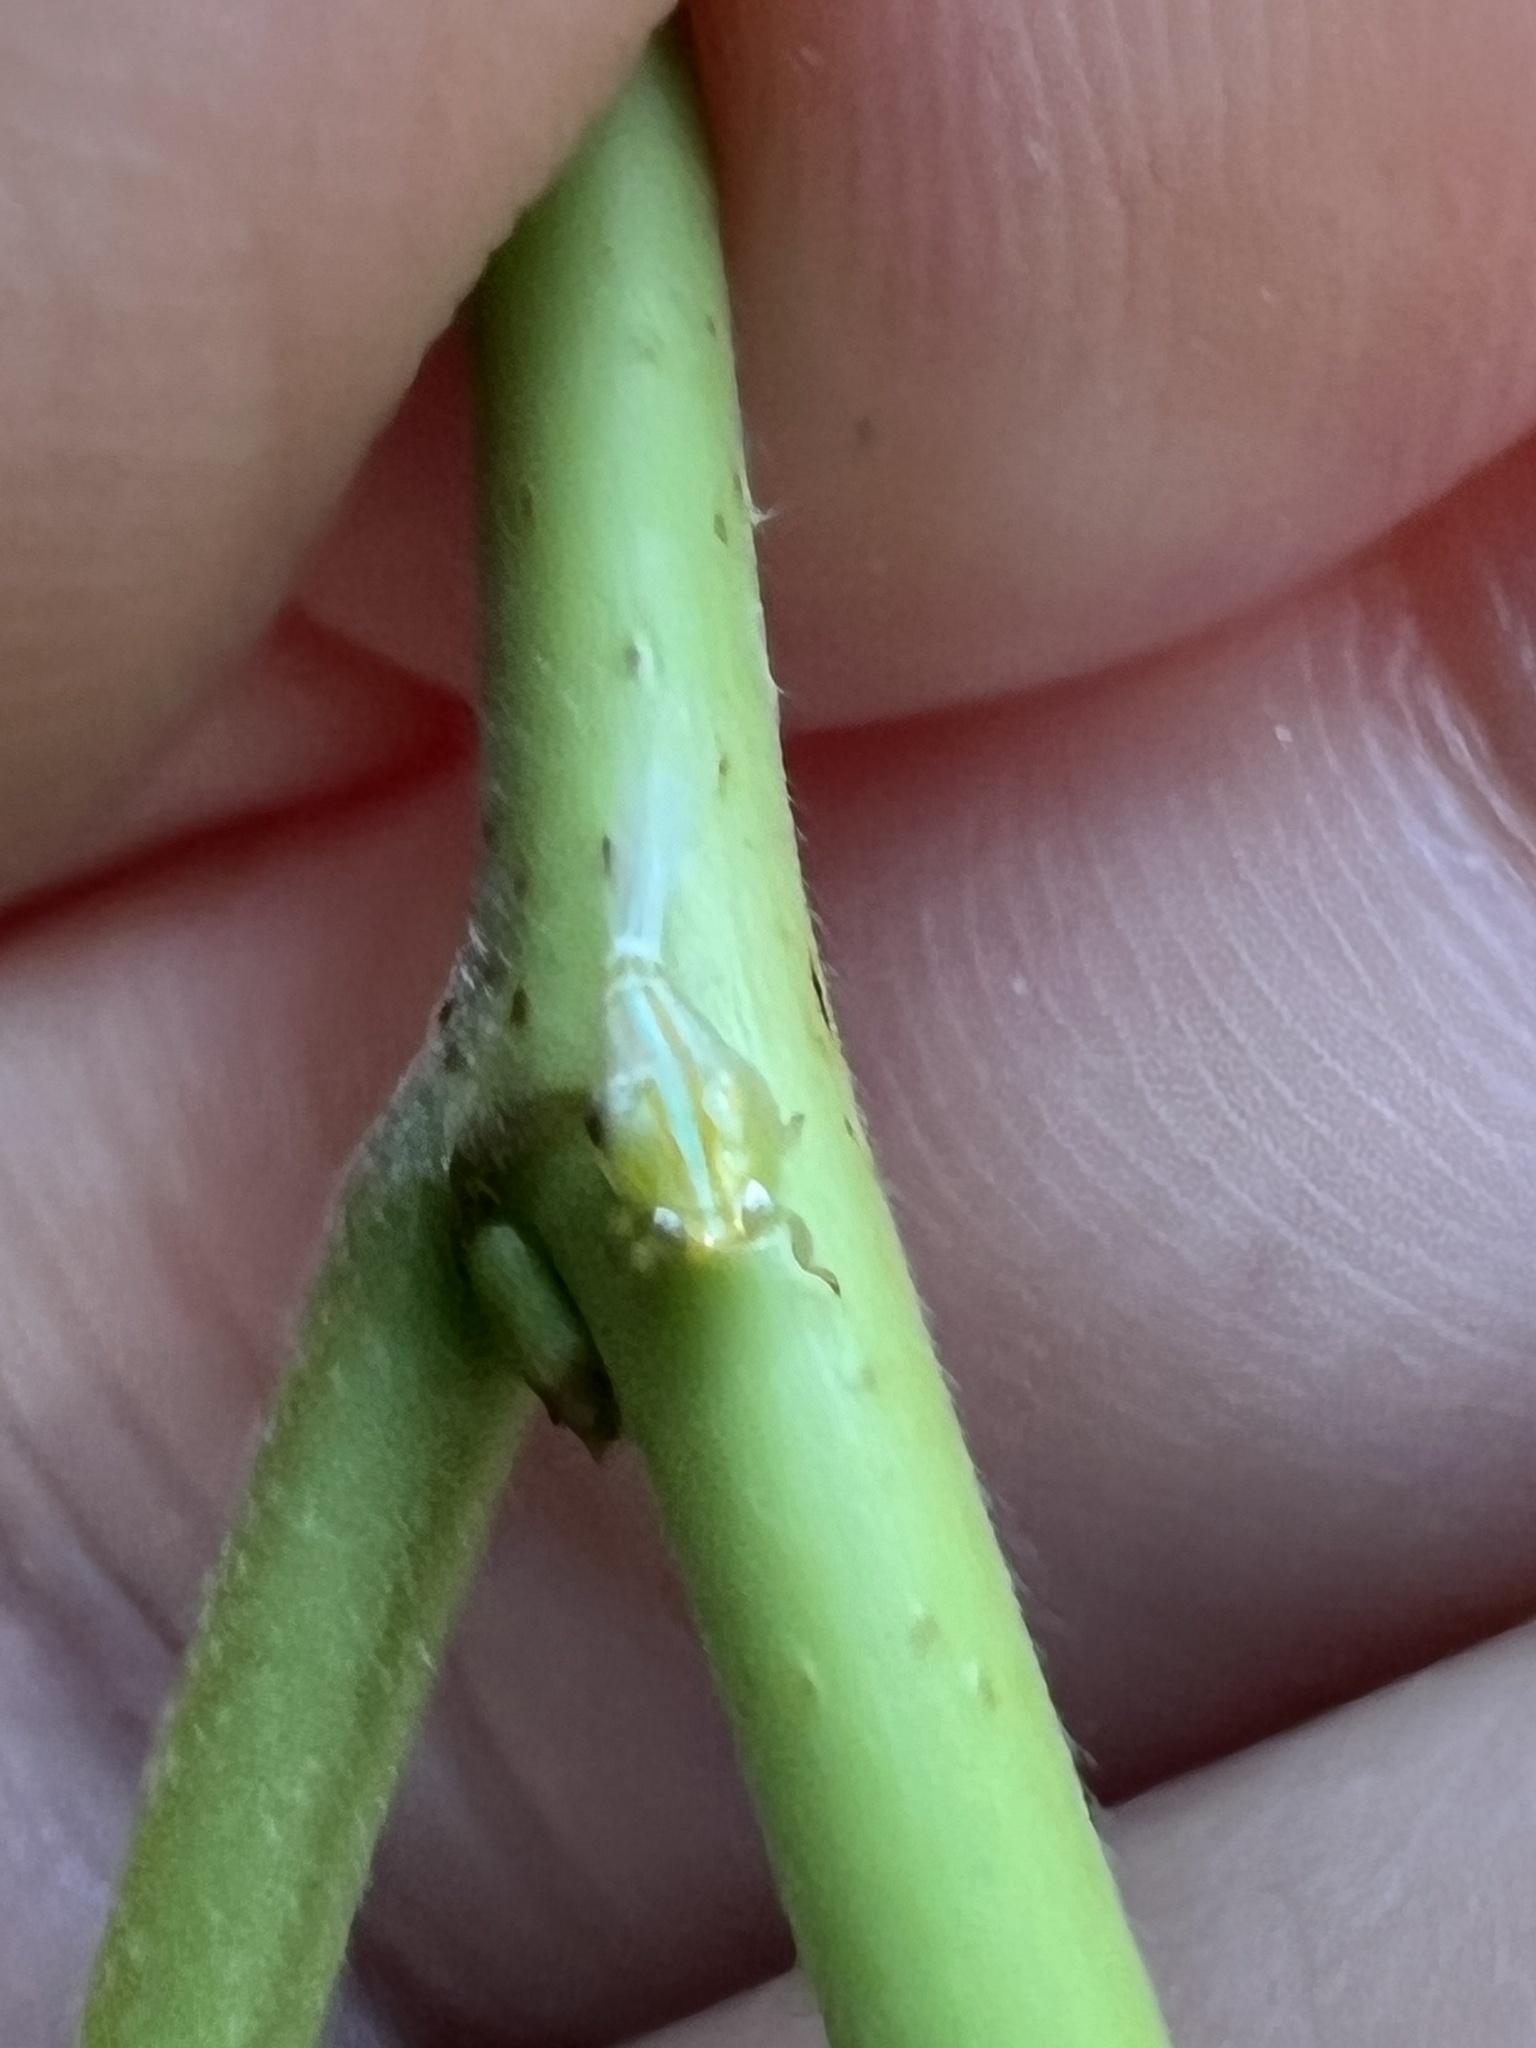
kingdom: Animalia
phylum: Arthropoda
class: Insecta
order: Hemiptera
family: Issidae
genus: Aplos
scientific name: Aplos simplex
